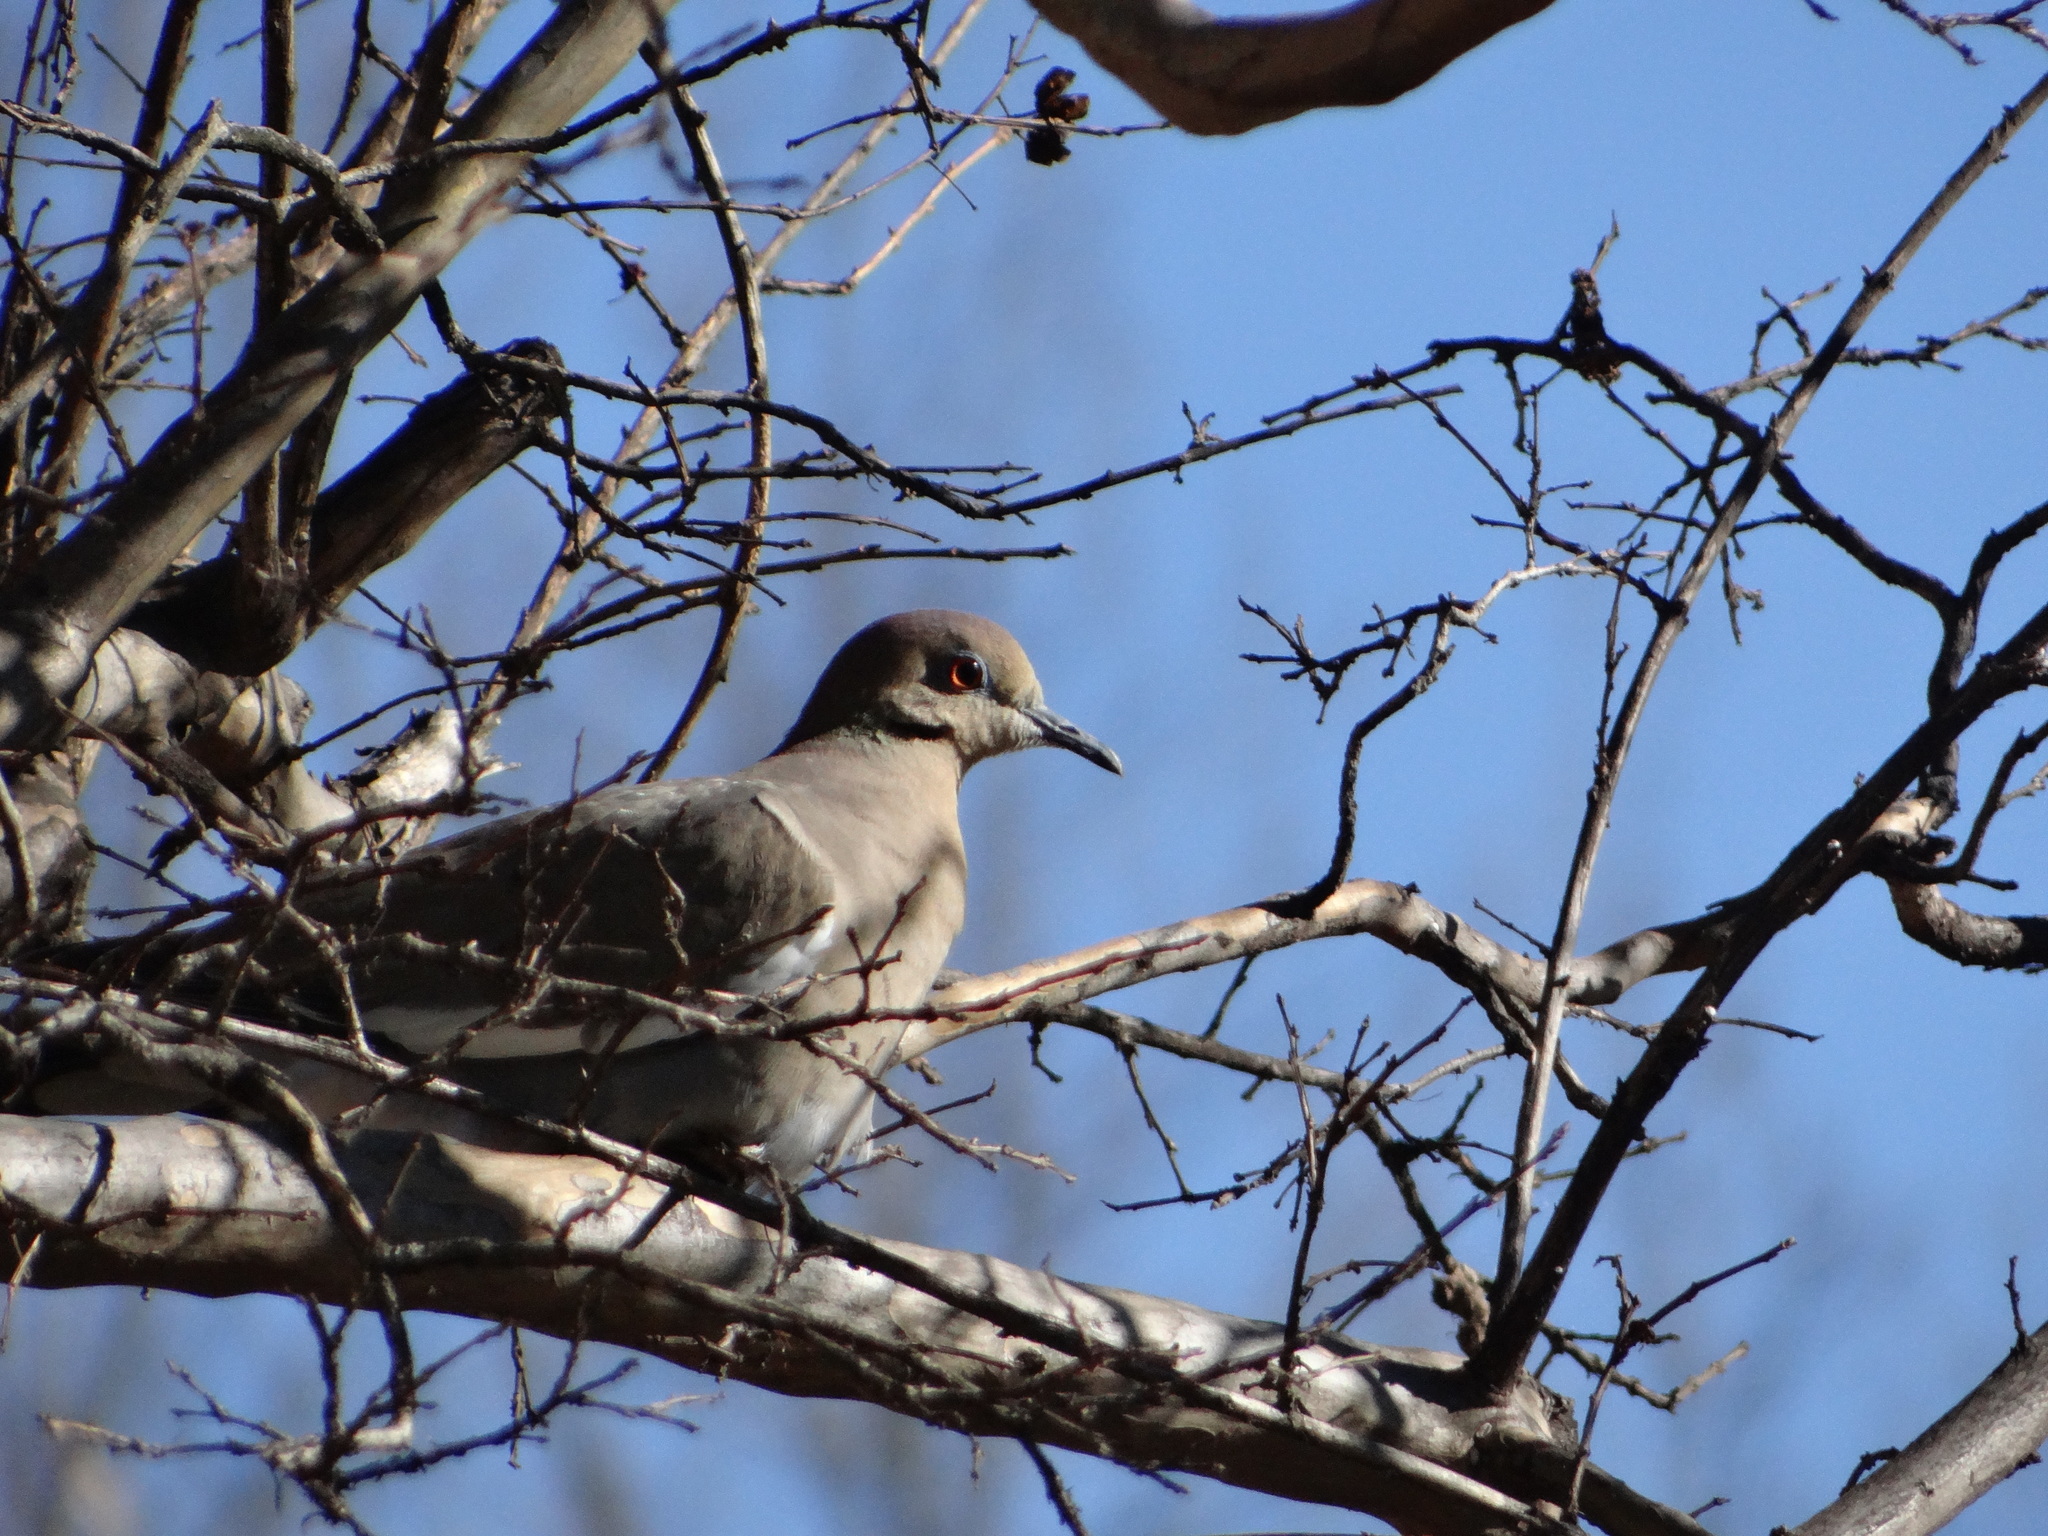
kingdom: Animalia
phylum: Chordata
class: Aves
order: Columbiformes
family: Columbidae
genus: Zenaida
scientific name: Zenaida macroura
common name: Mourning dove
